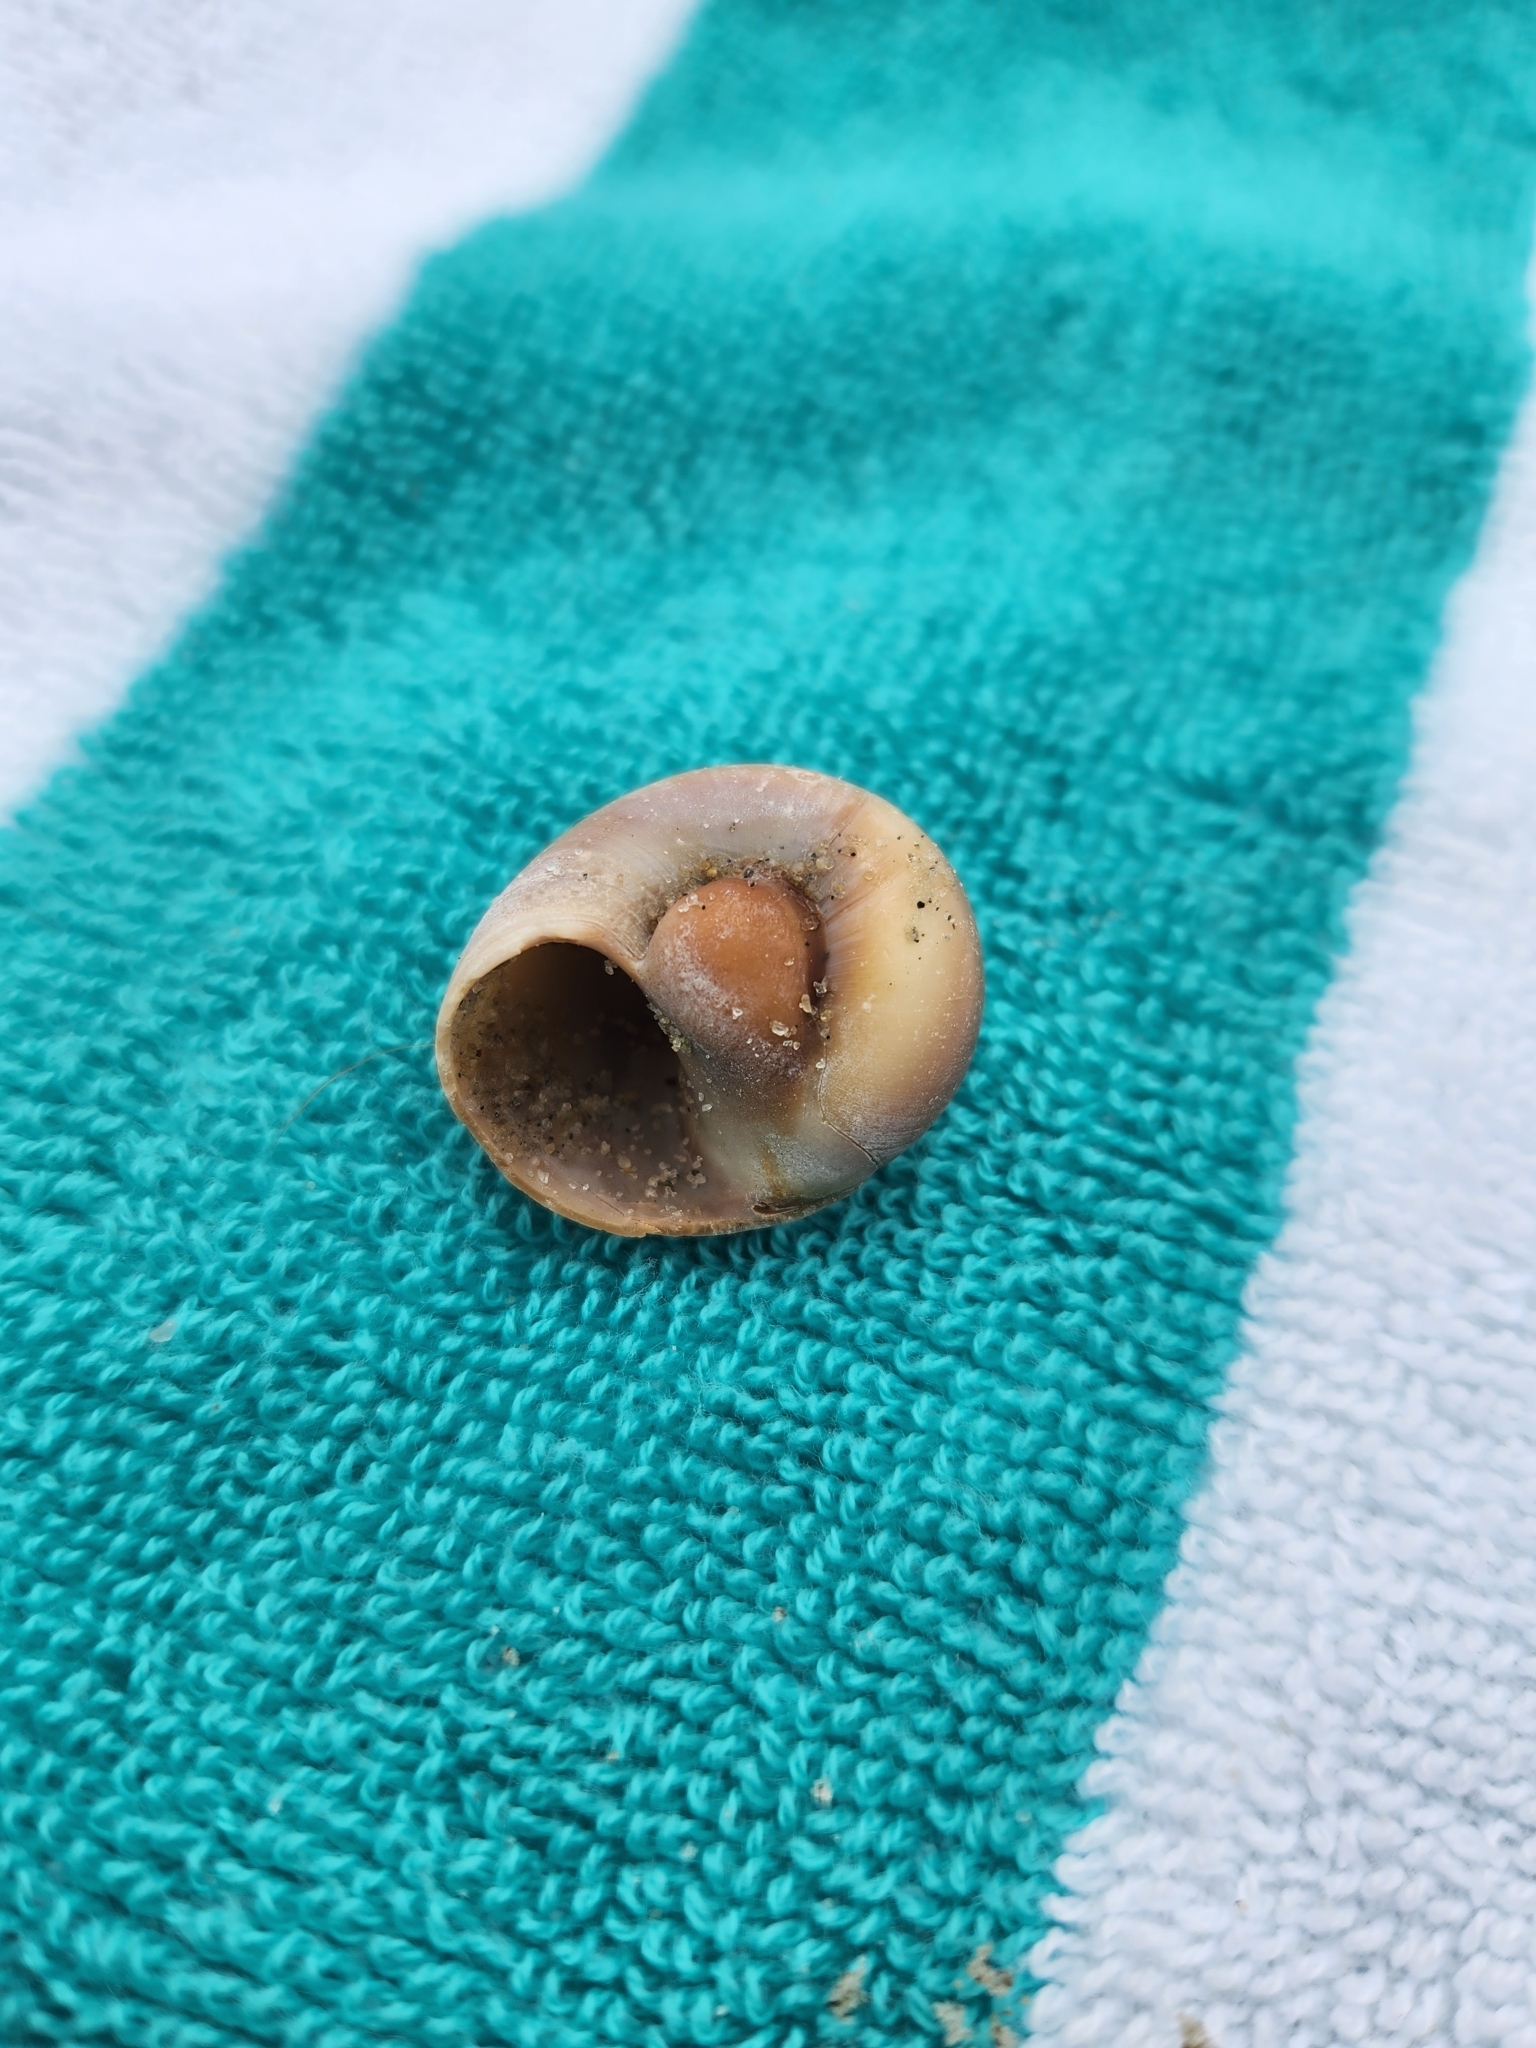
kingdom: Animalia
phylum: Mollusca
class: Gastropoda
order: Littorinimorpha
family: Naticidae
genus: Neverita
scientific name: Neverita duplicata
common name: Lobed moonsnail
